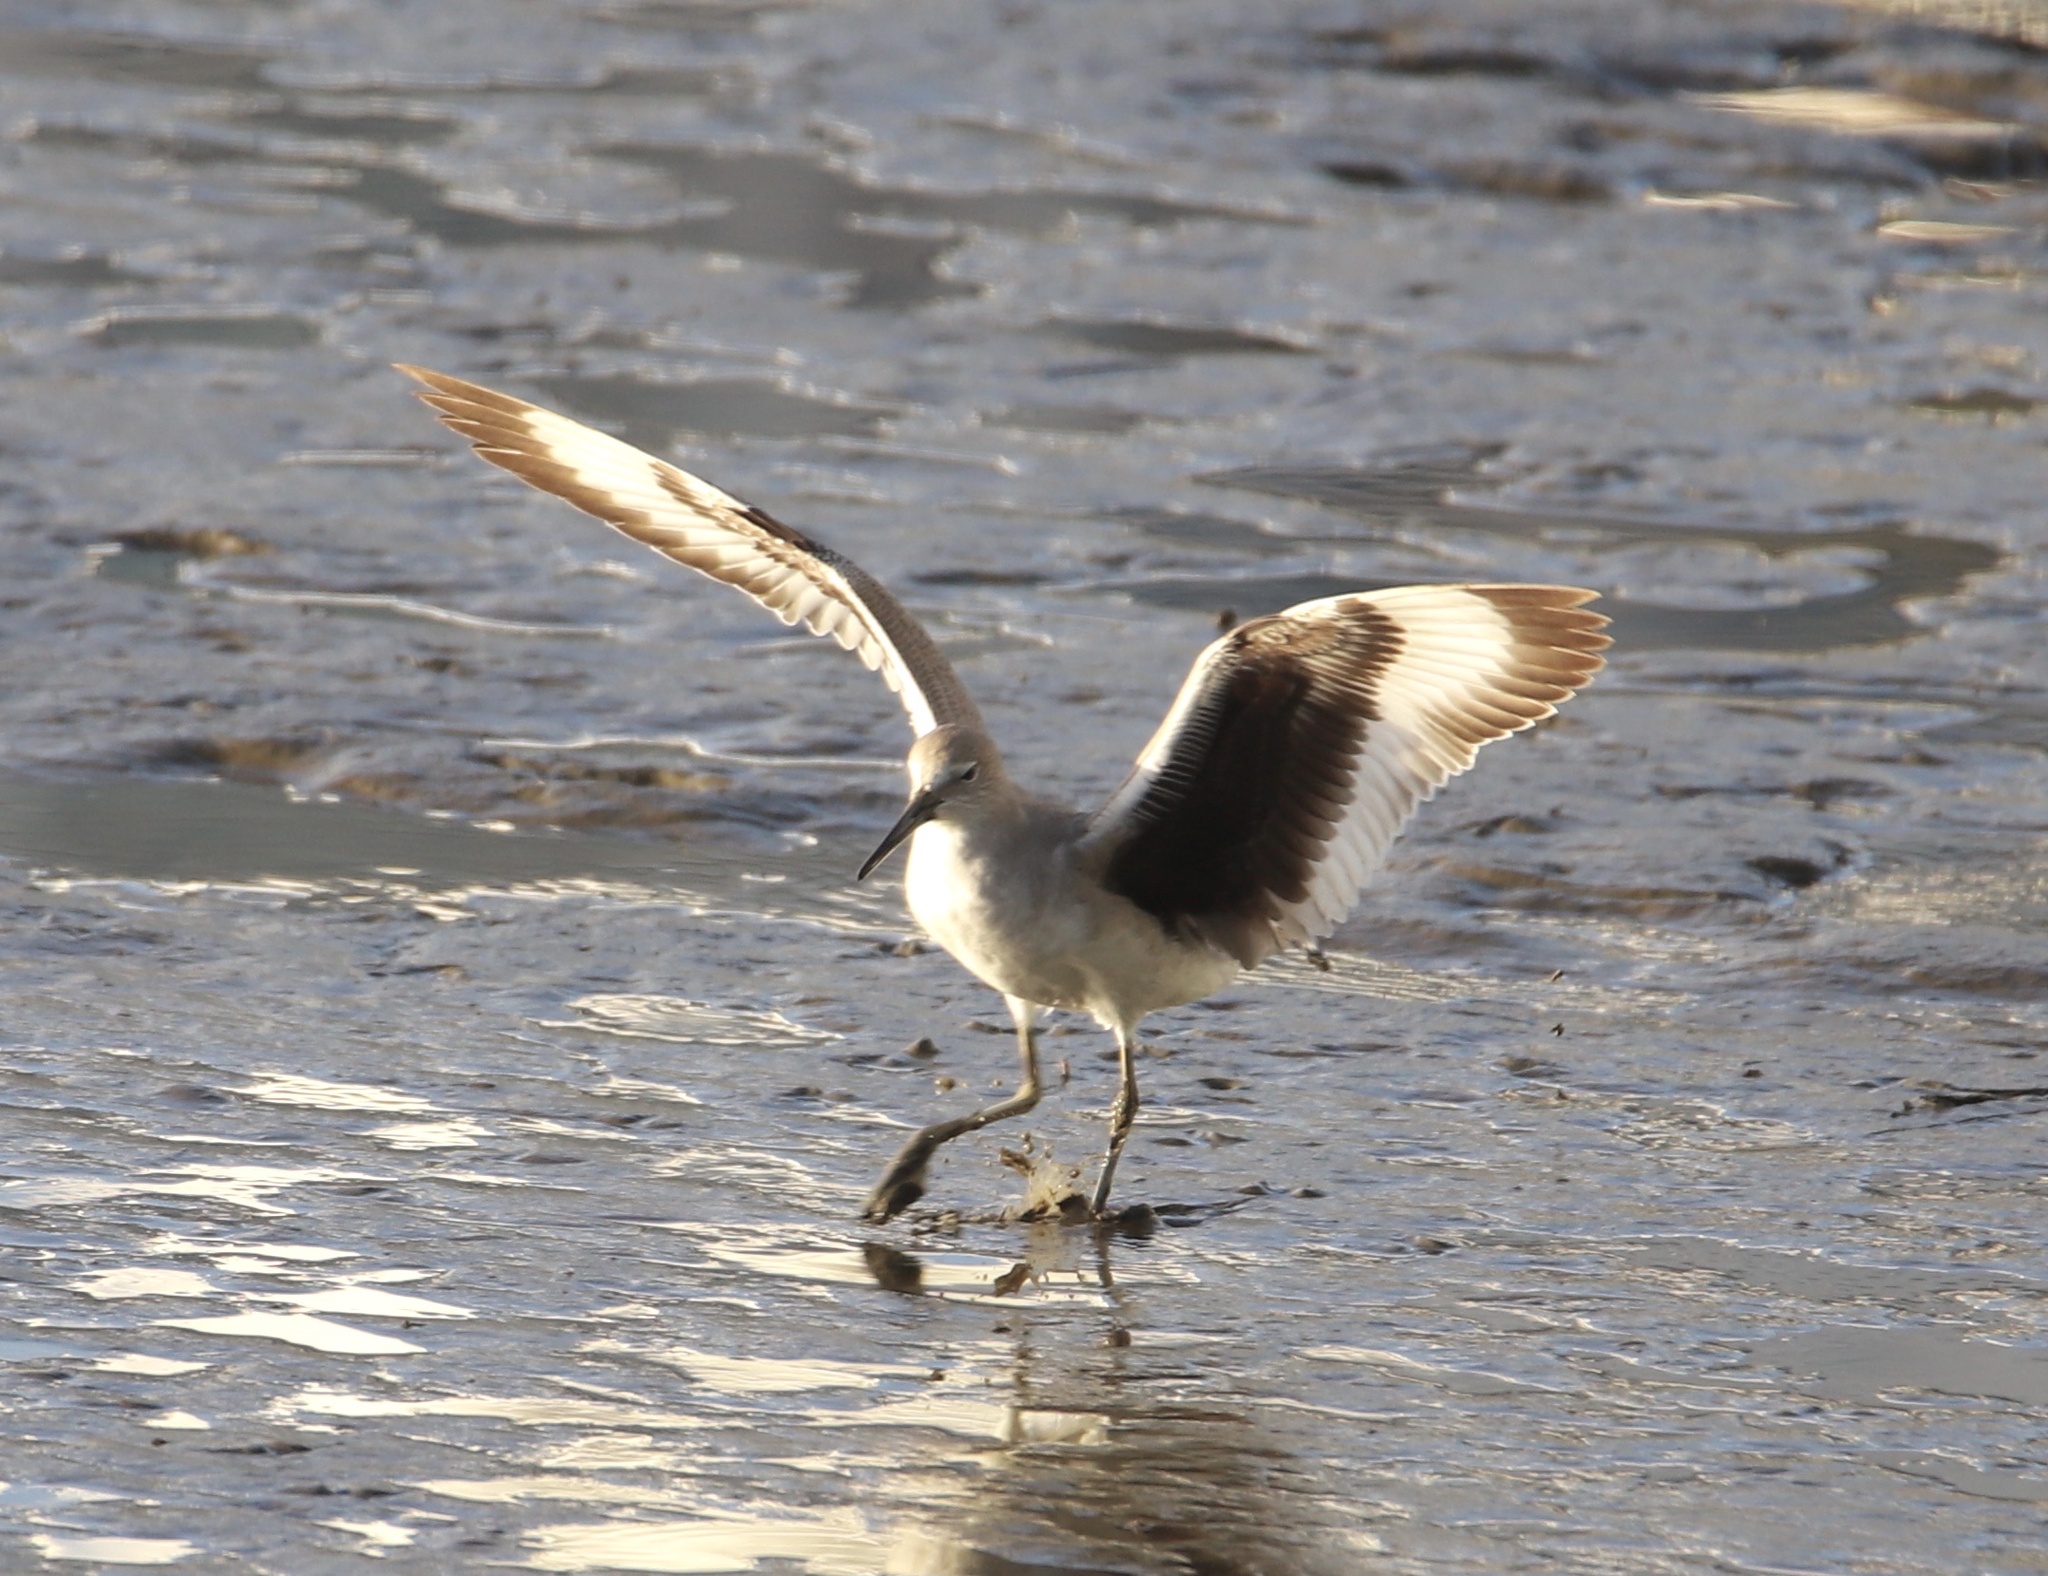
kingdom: Animalia
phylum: Chordata
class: Aves
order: Charadriiformes
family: Scolopacidae
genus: Tringa
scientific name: Tringa semipalmata
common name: Willet
